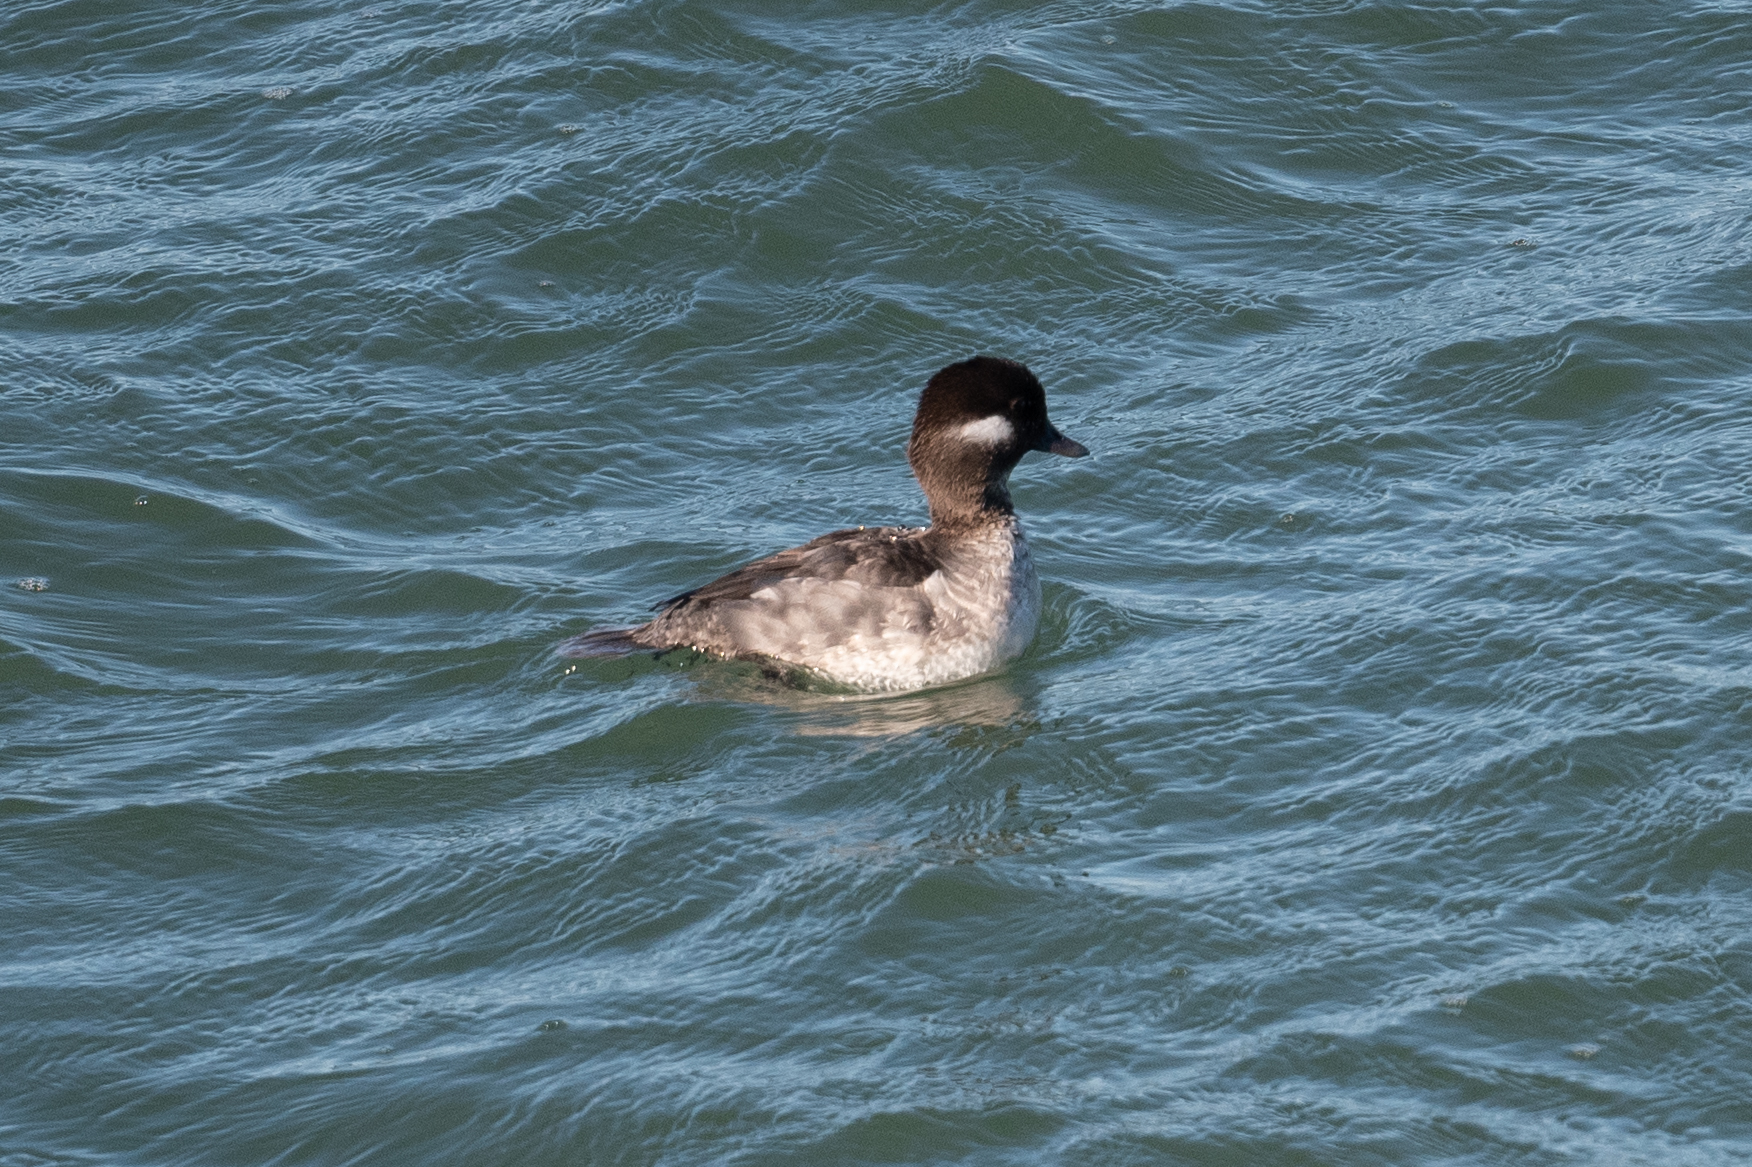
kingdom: Animalia
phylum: Chordata
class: Aves
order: Anseriformes
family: Anatidae
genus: Bucephala
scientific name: Bucephala albeola
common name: Bufflehead
